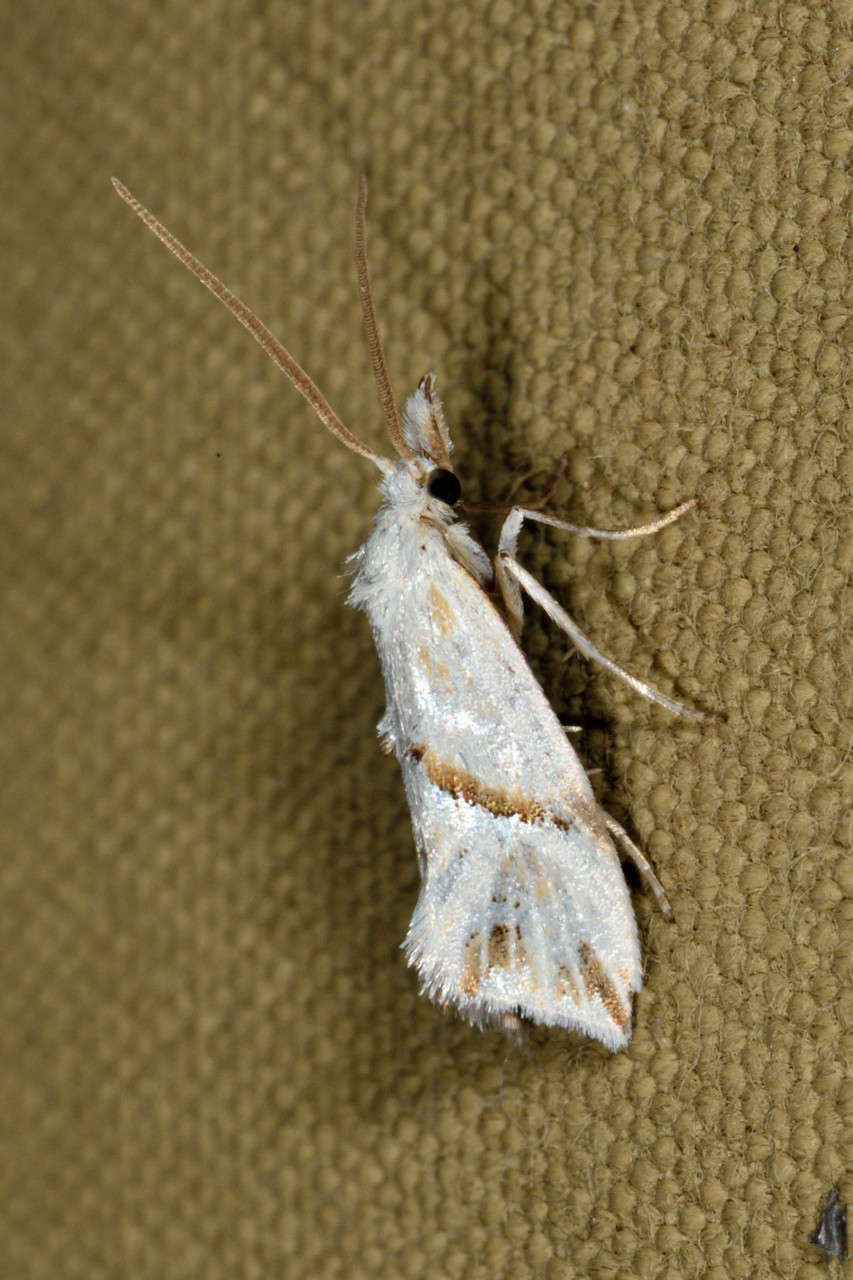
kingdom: Animalia
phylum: Arthropoda
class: Insecta
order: Lepidoptera
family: Tortricidae
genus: Heliocosma
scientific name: Heliocosma argyroleuca
